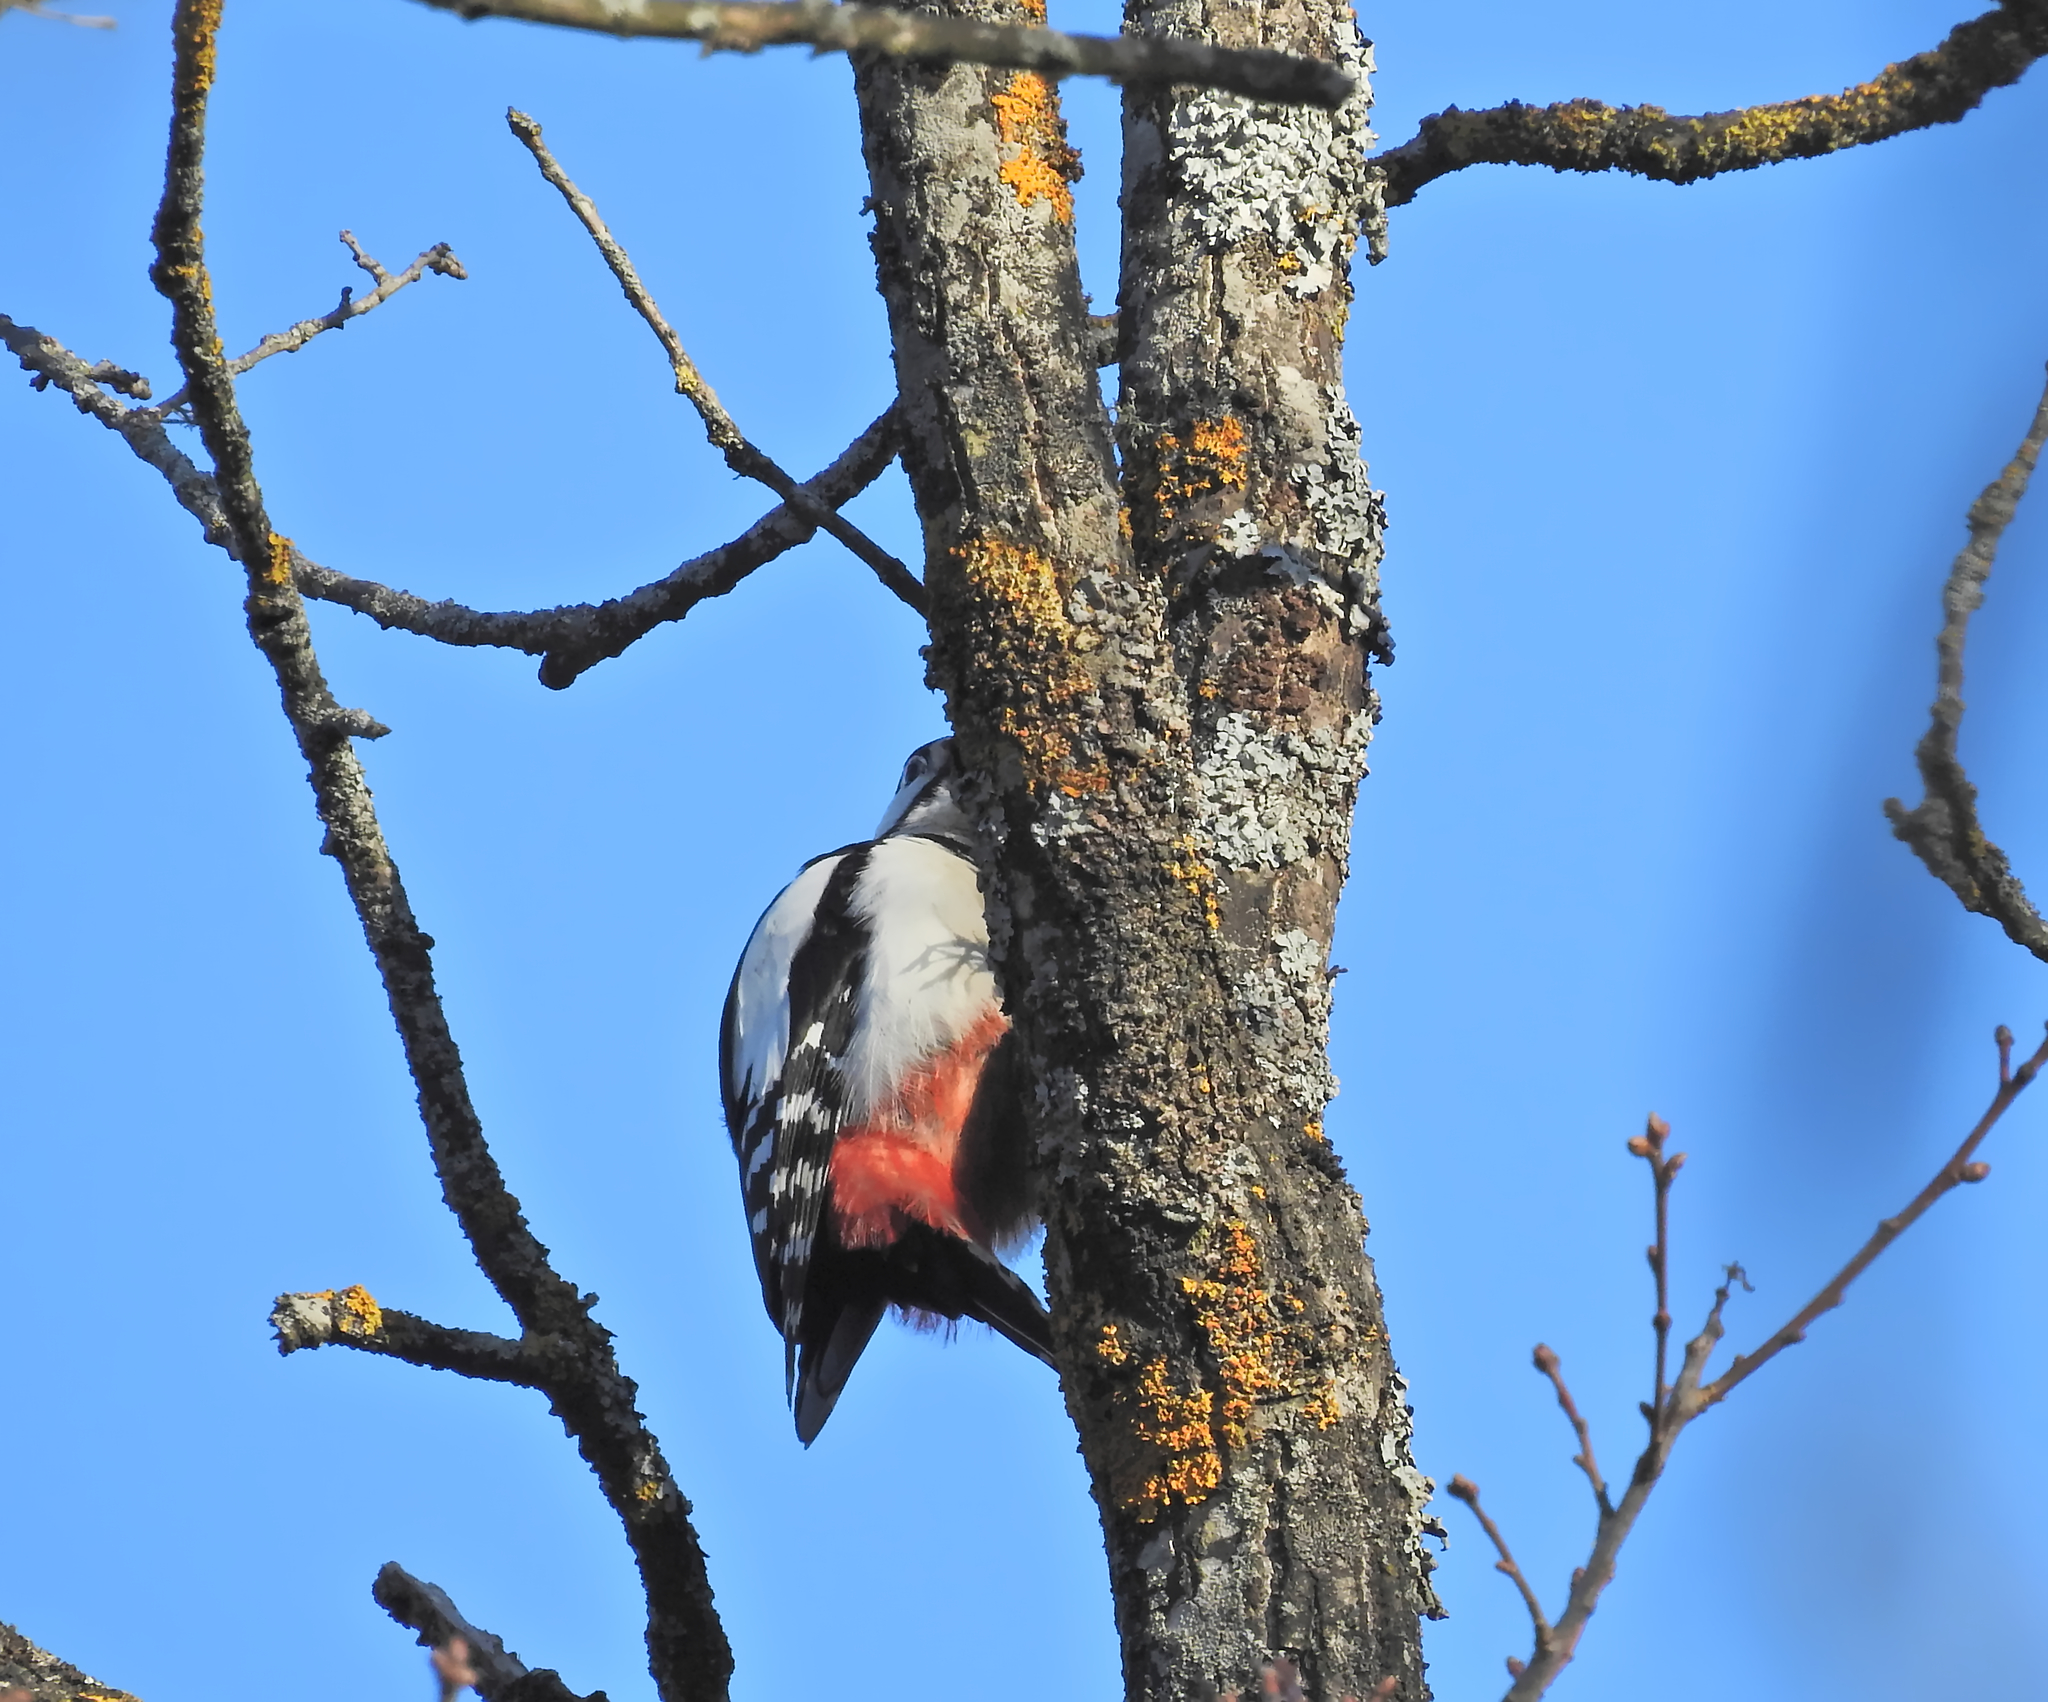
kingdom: Animalia
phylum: Chordata
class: Aves
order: Piciformes
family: Picidae
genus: Dendrocopos
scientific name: Dendrocopos major
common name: Great spotted woodpecker
